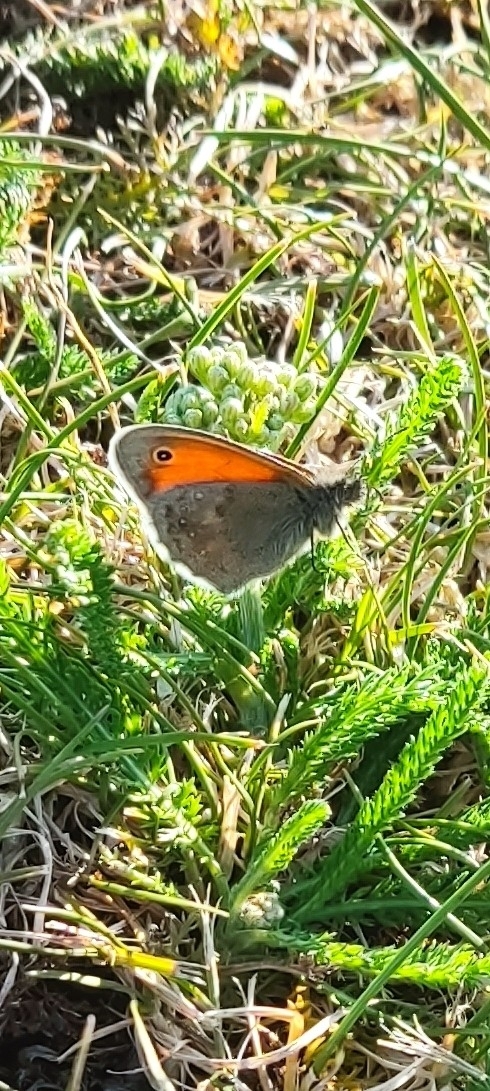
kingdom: Animalia
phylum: Arthropoda
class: Insecta
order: Lepidoptera
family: Nymphalidae
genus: Coenonympha
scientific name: Coenonympha pamphilus
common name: Small heath
